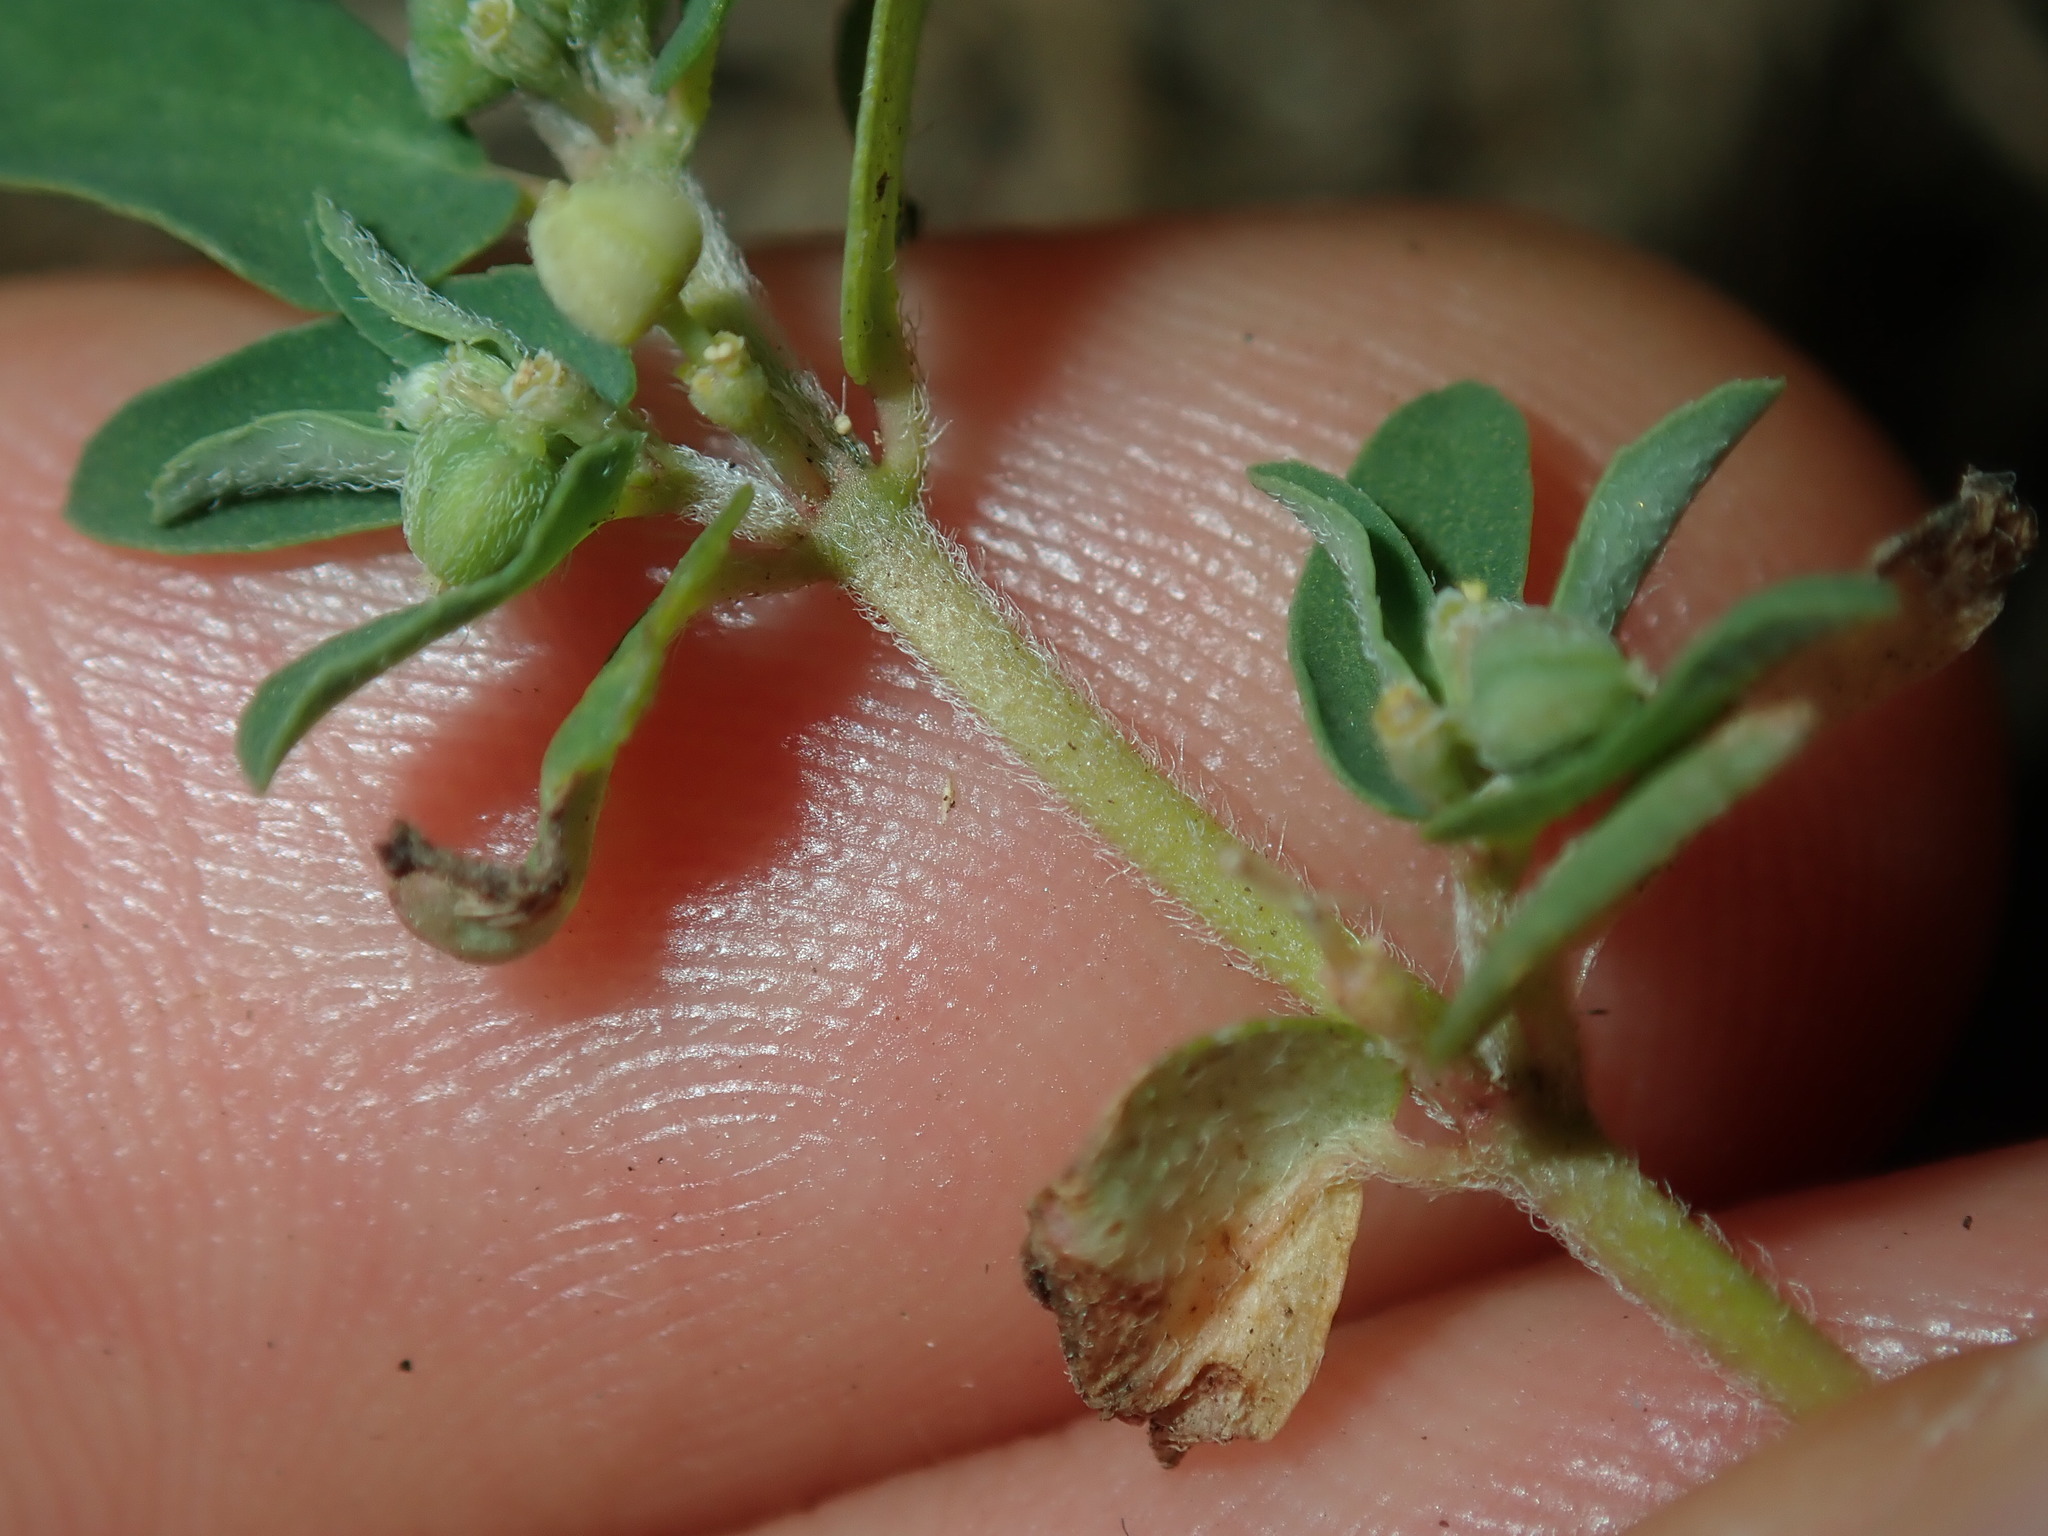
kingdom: Plantae
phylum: Tracheophyta
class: Magnoliopsida
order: Malpighiales
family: Euphorbiaceae
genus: Euphorbia
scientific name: Euphorbia maculata
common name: Spotted spurge
